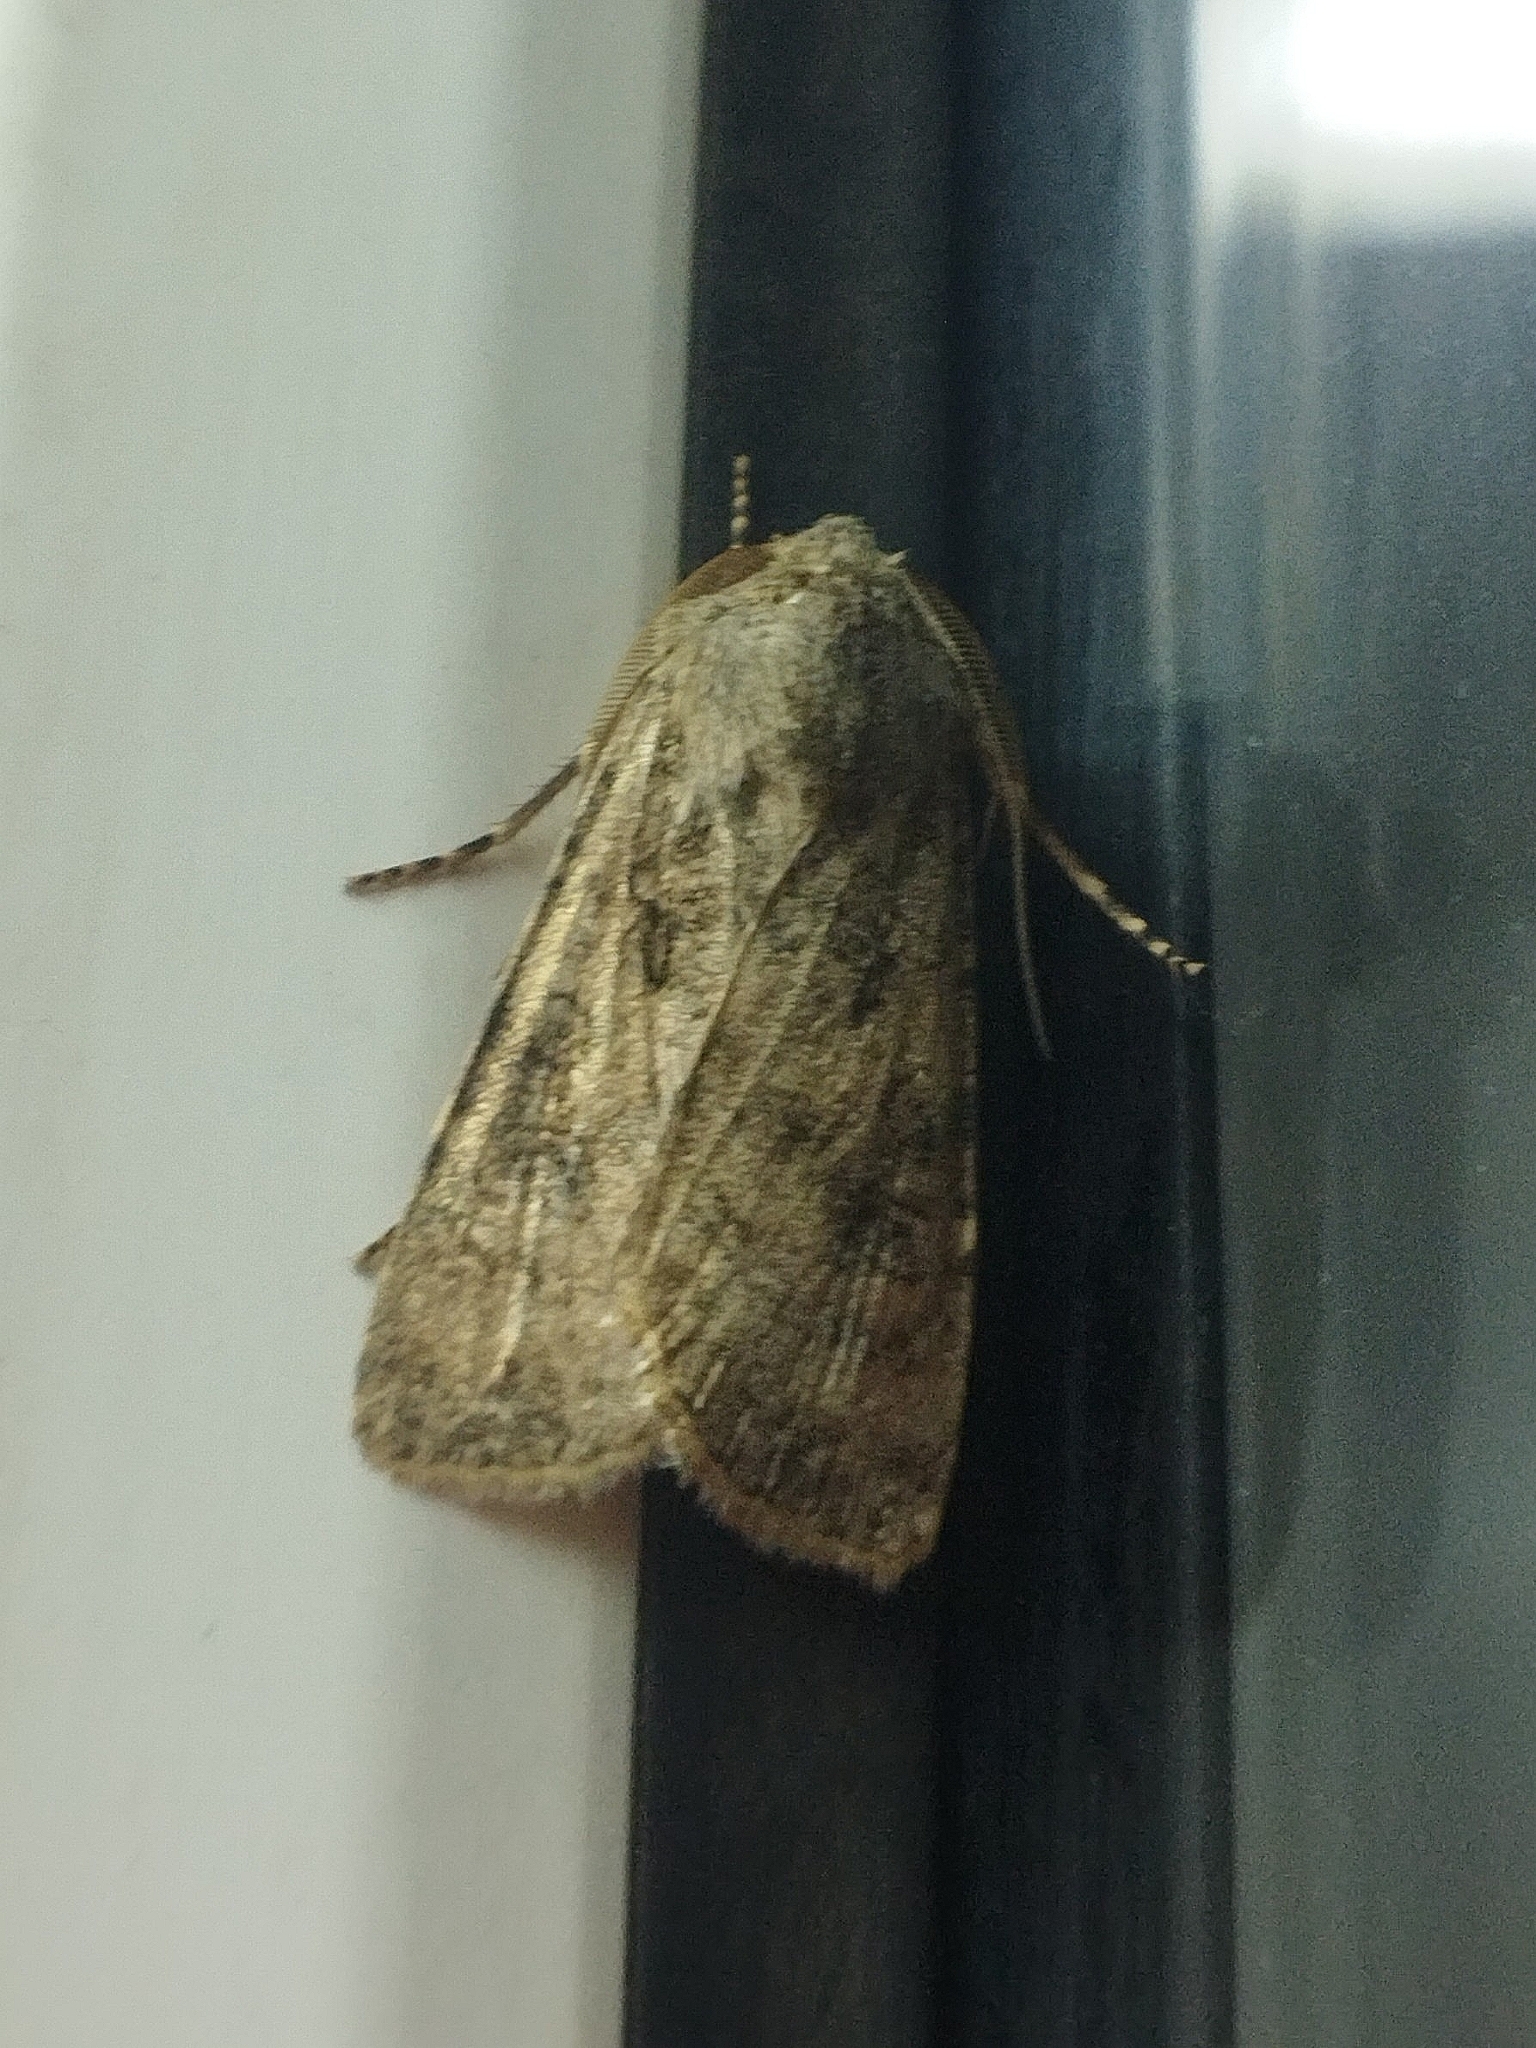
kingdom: Animalia
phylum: Arthropoda
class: Insecta
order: Lepidoptera
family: Noctuidae
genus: Agrotis
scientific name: Agrotis segetum
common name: Turnip moth
